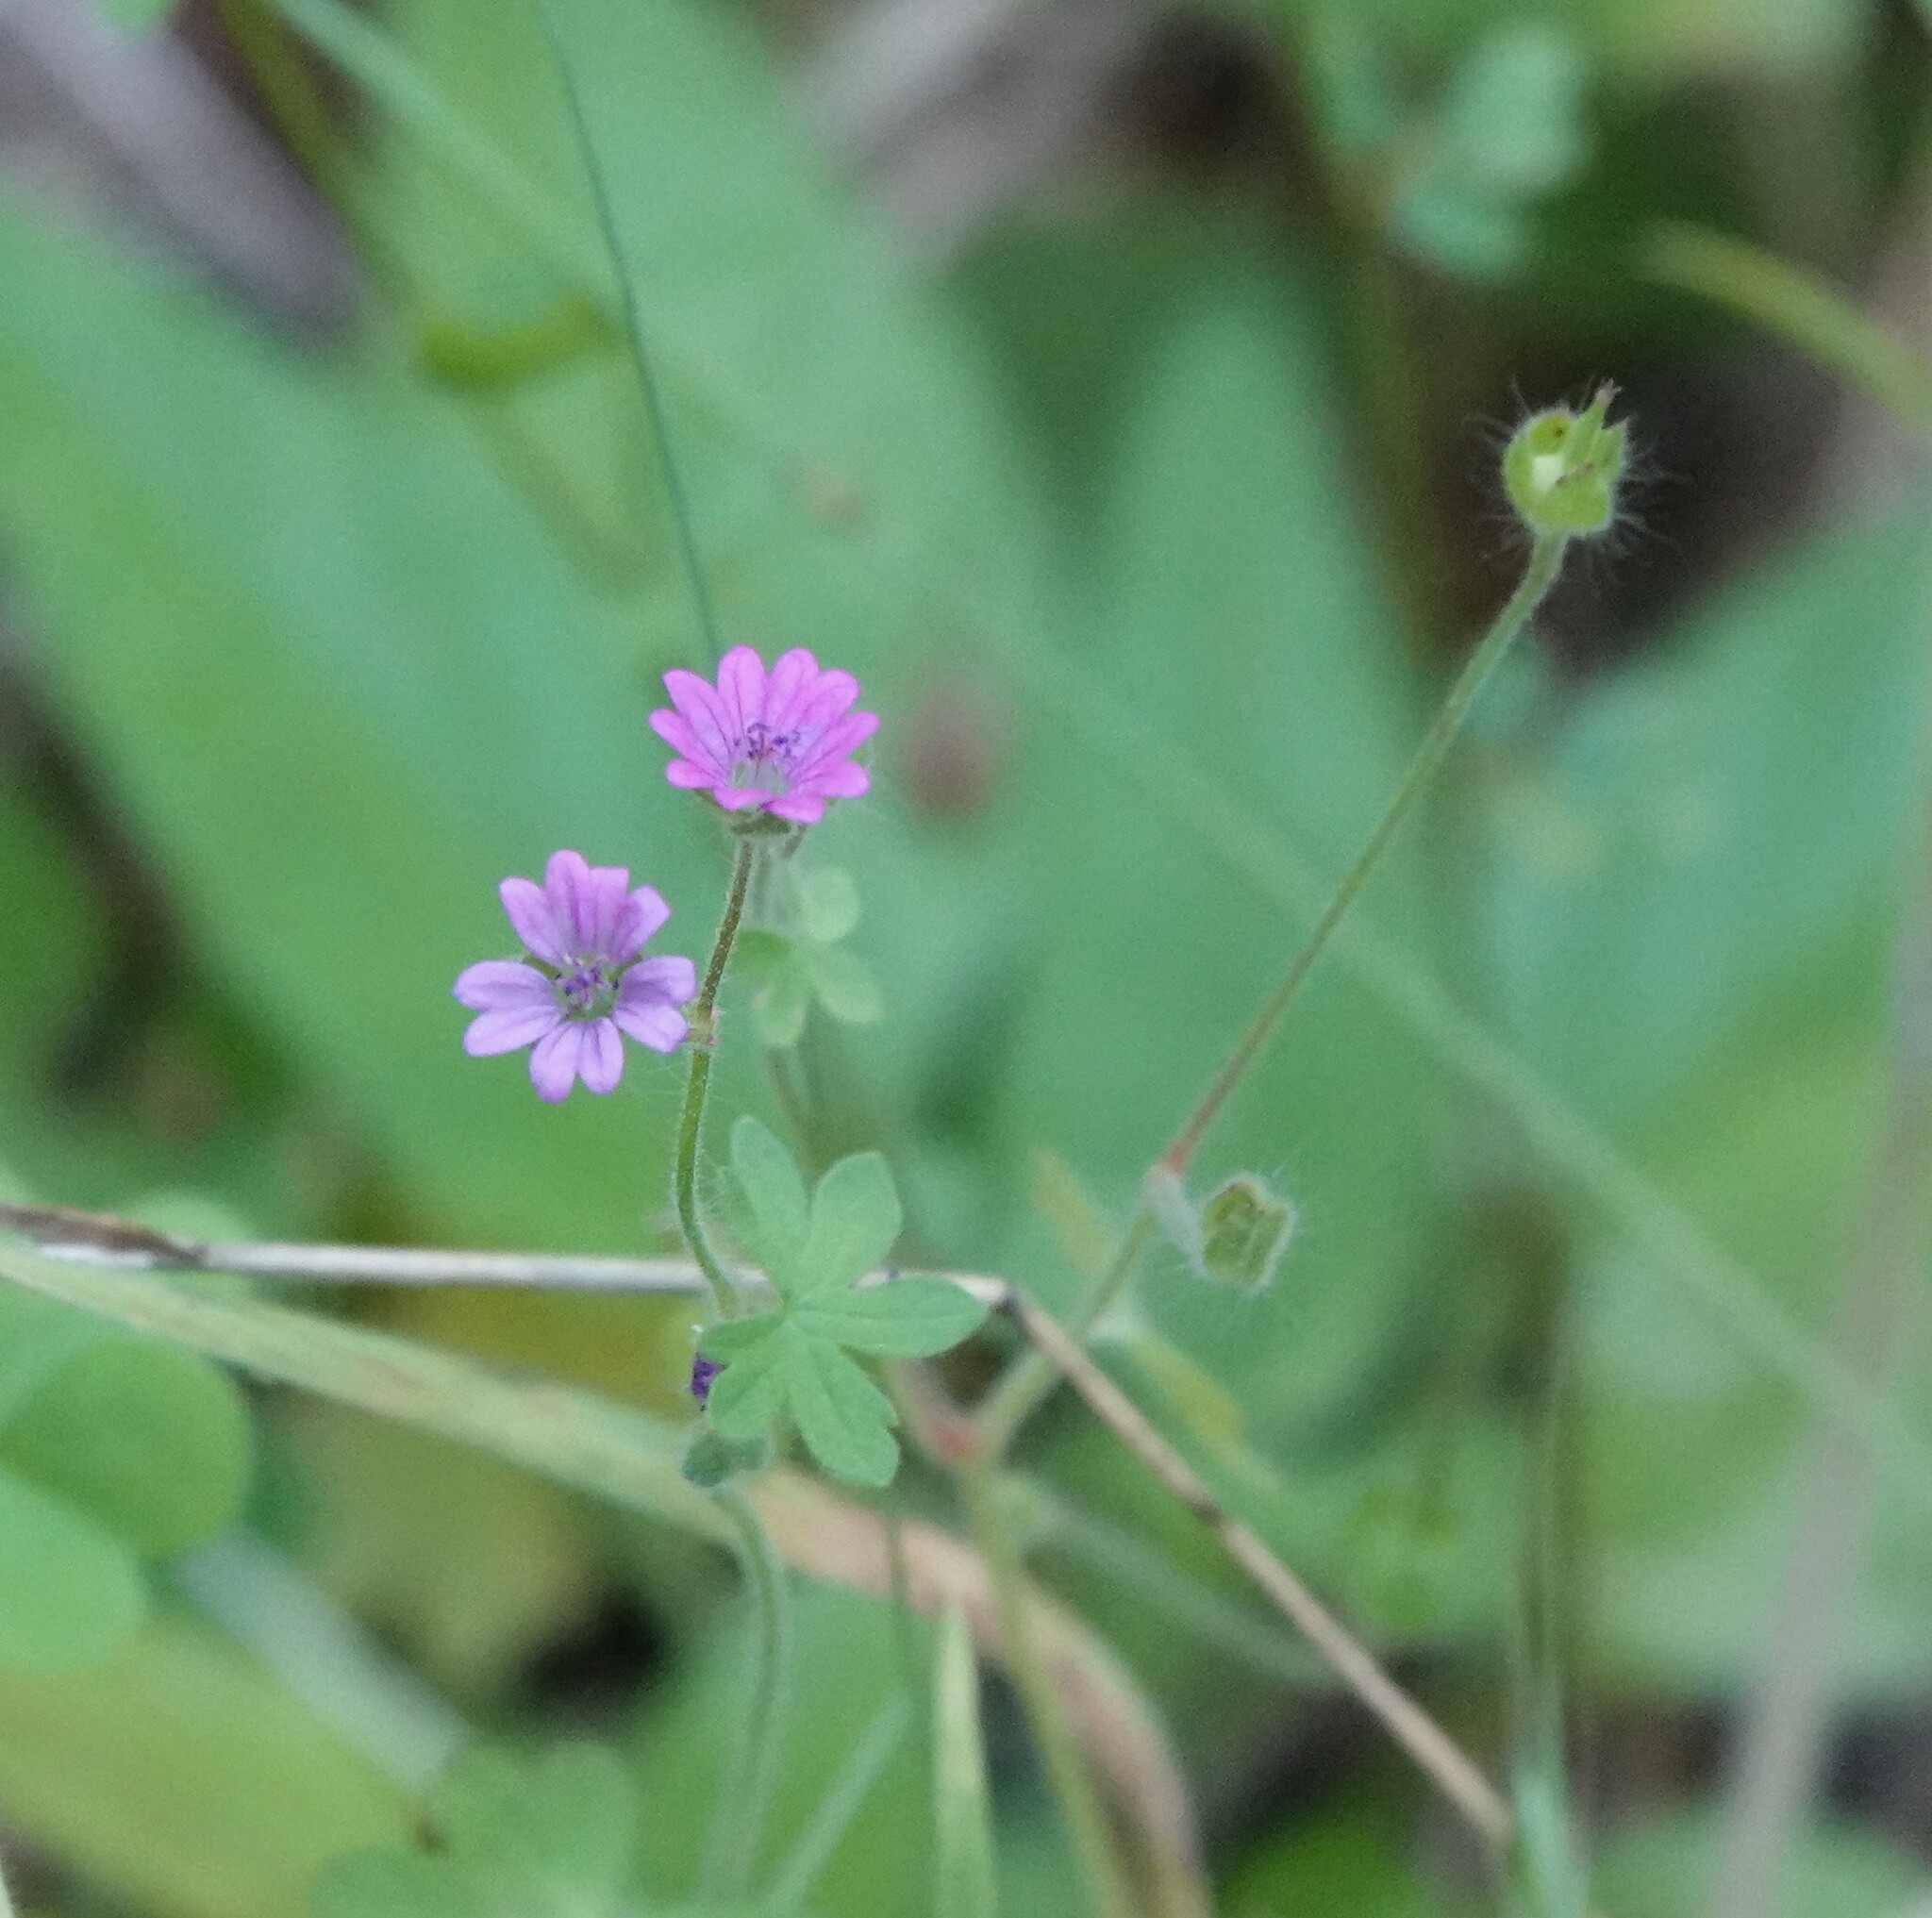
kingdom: Plantae
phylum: Tracheophyta
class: Magnoliopsida
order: Geraniales
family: Geraniaceae
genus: Geranium
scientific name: Geranium molle
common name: Dove's-foot crane's-bill
